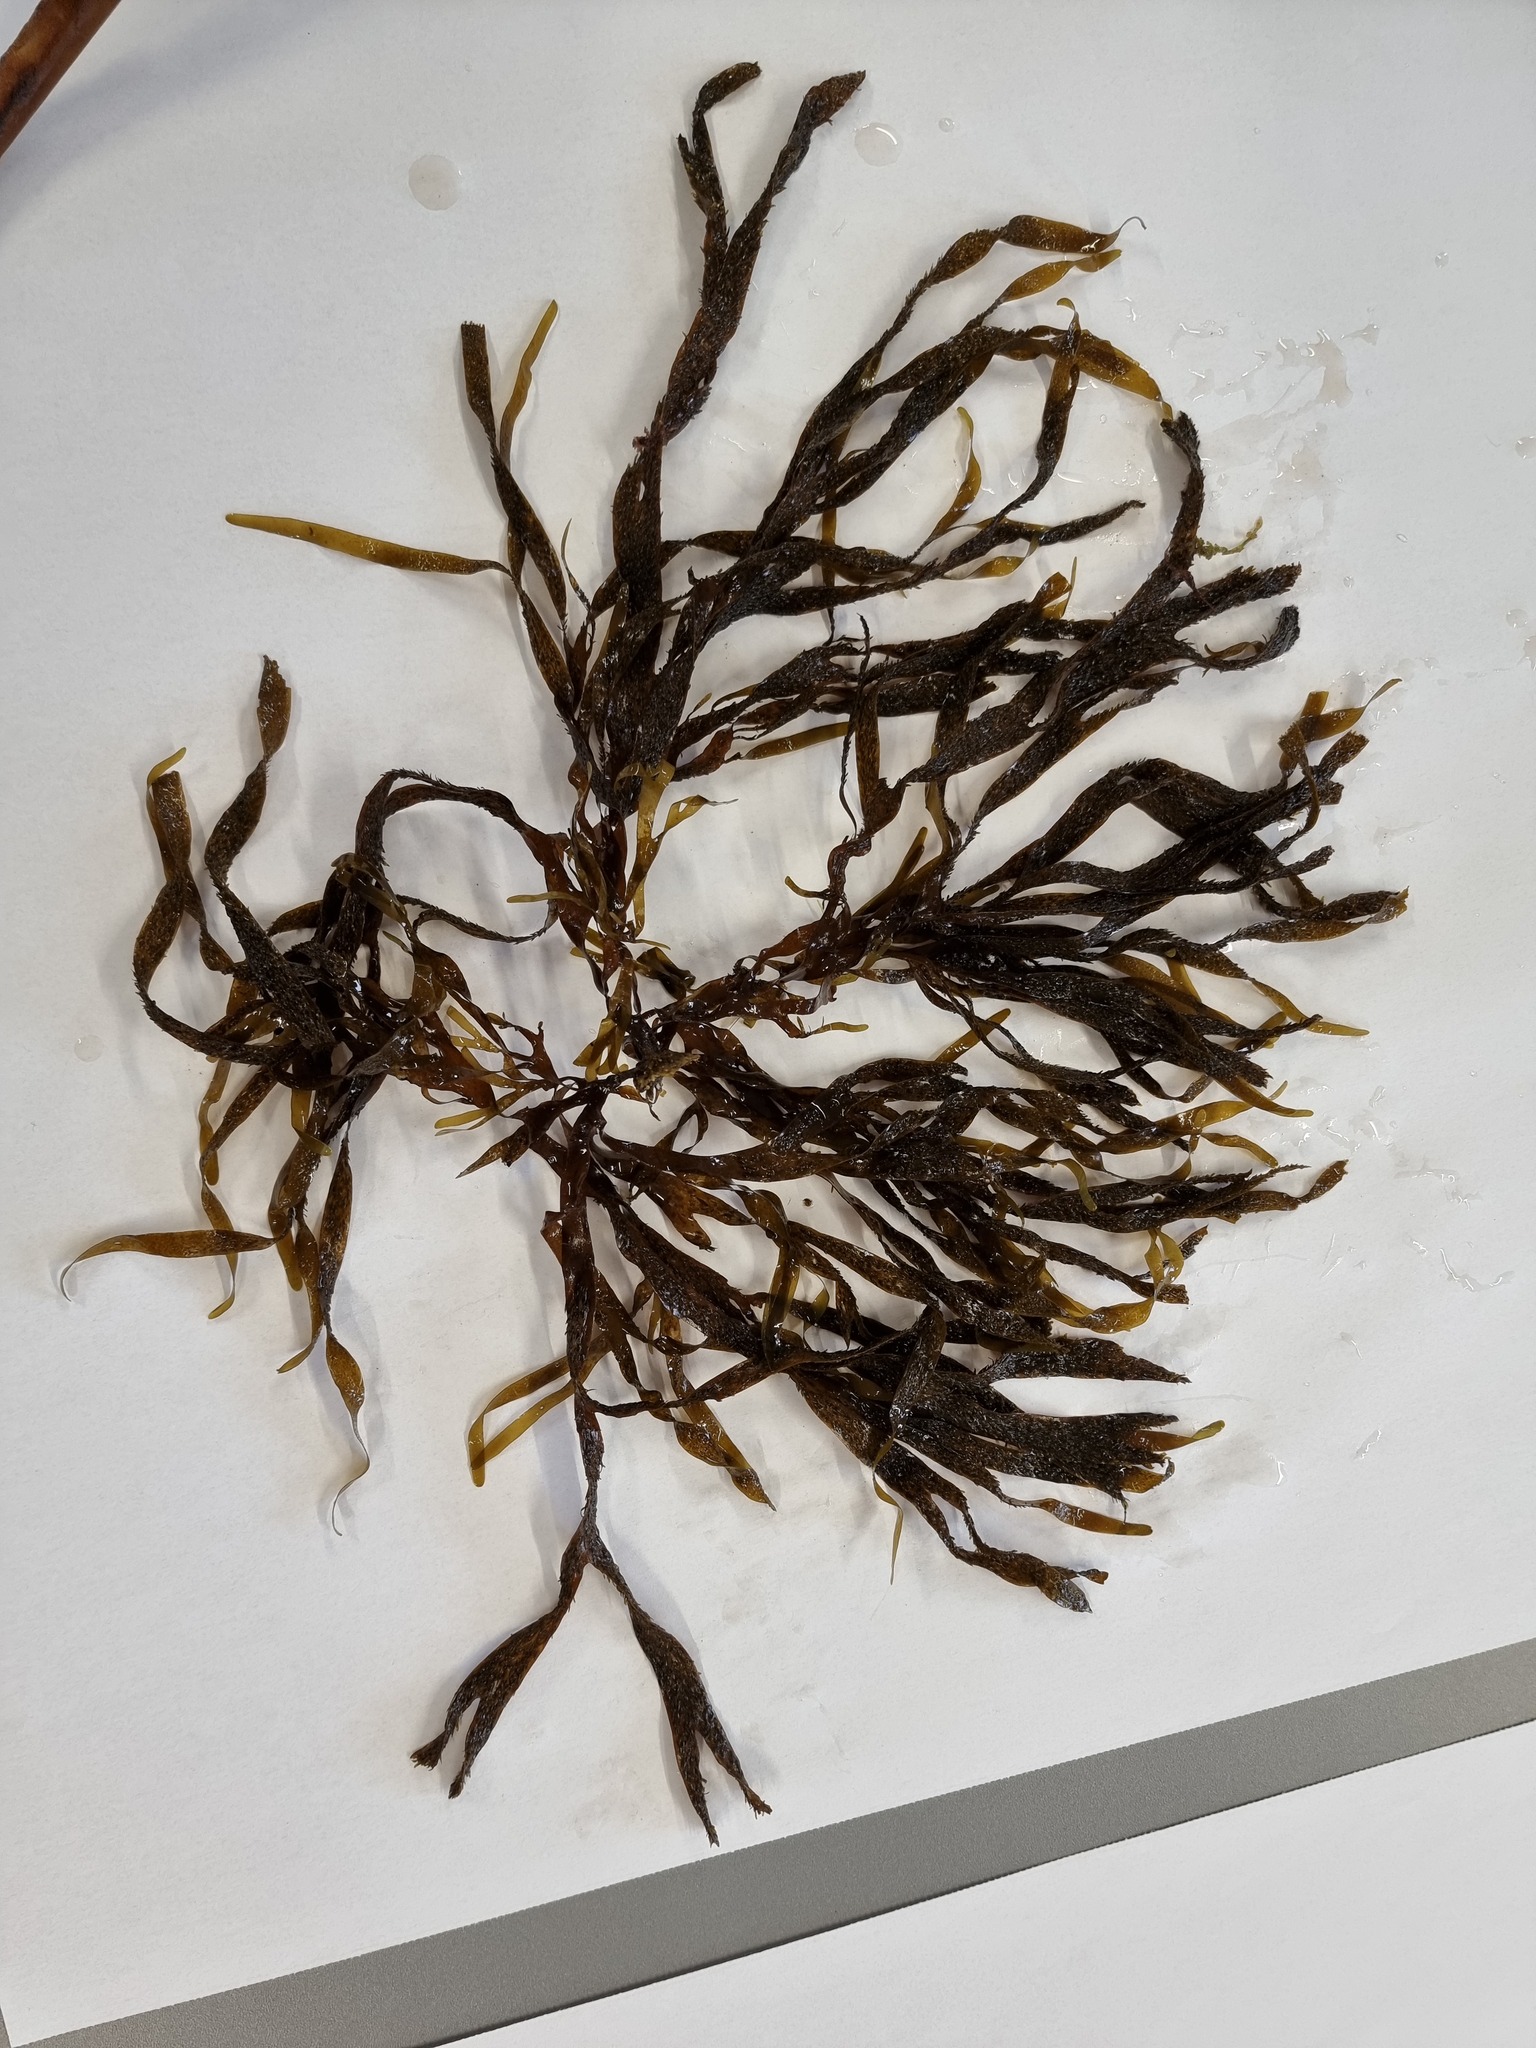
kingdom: Chromista
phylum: Ochrophyta
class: Phaeophyceae
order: Dictyotales
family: Dictyotaceae
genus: Dictyota
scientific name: Dictyota kunthii
